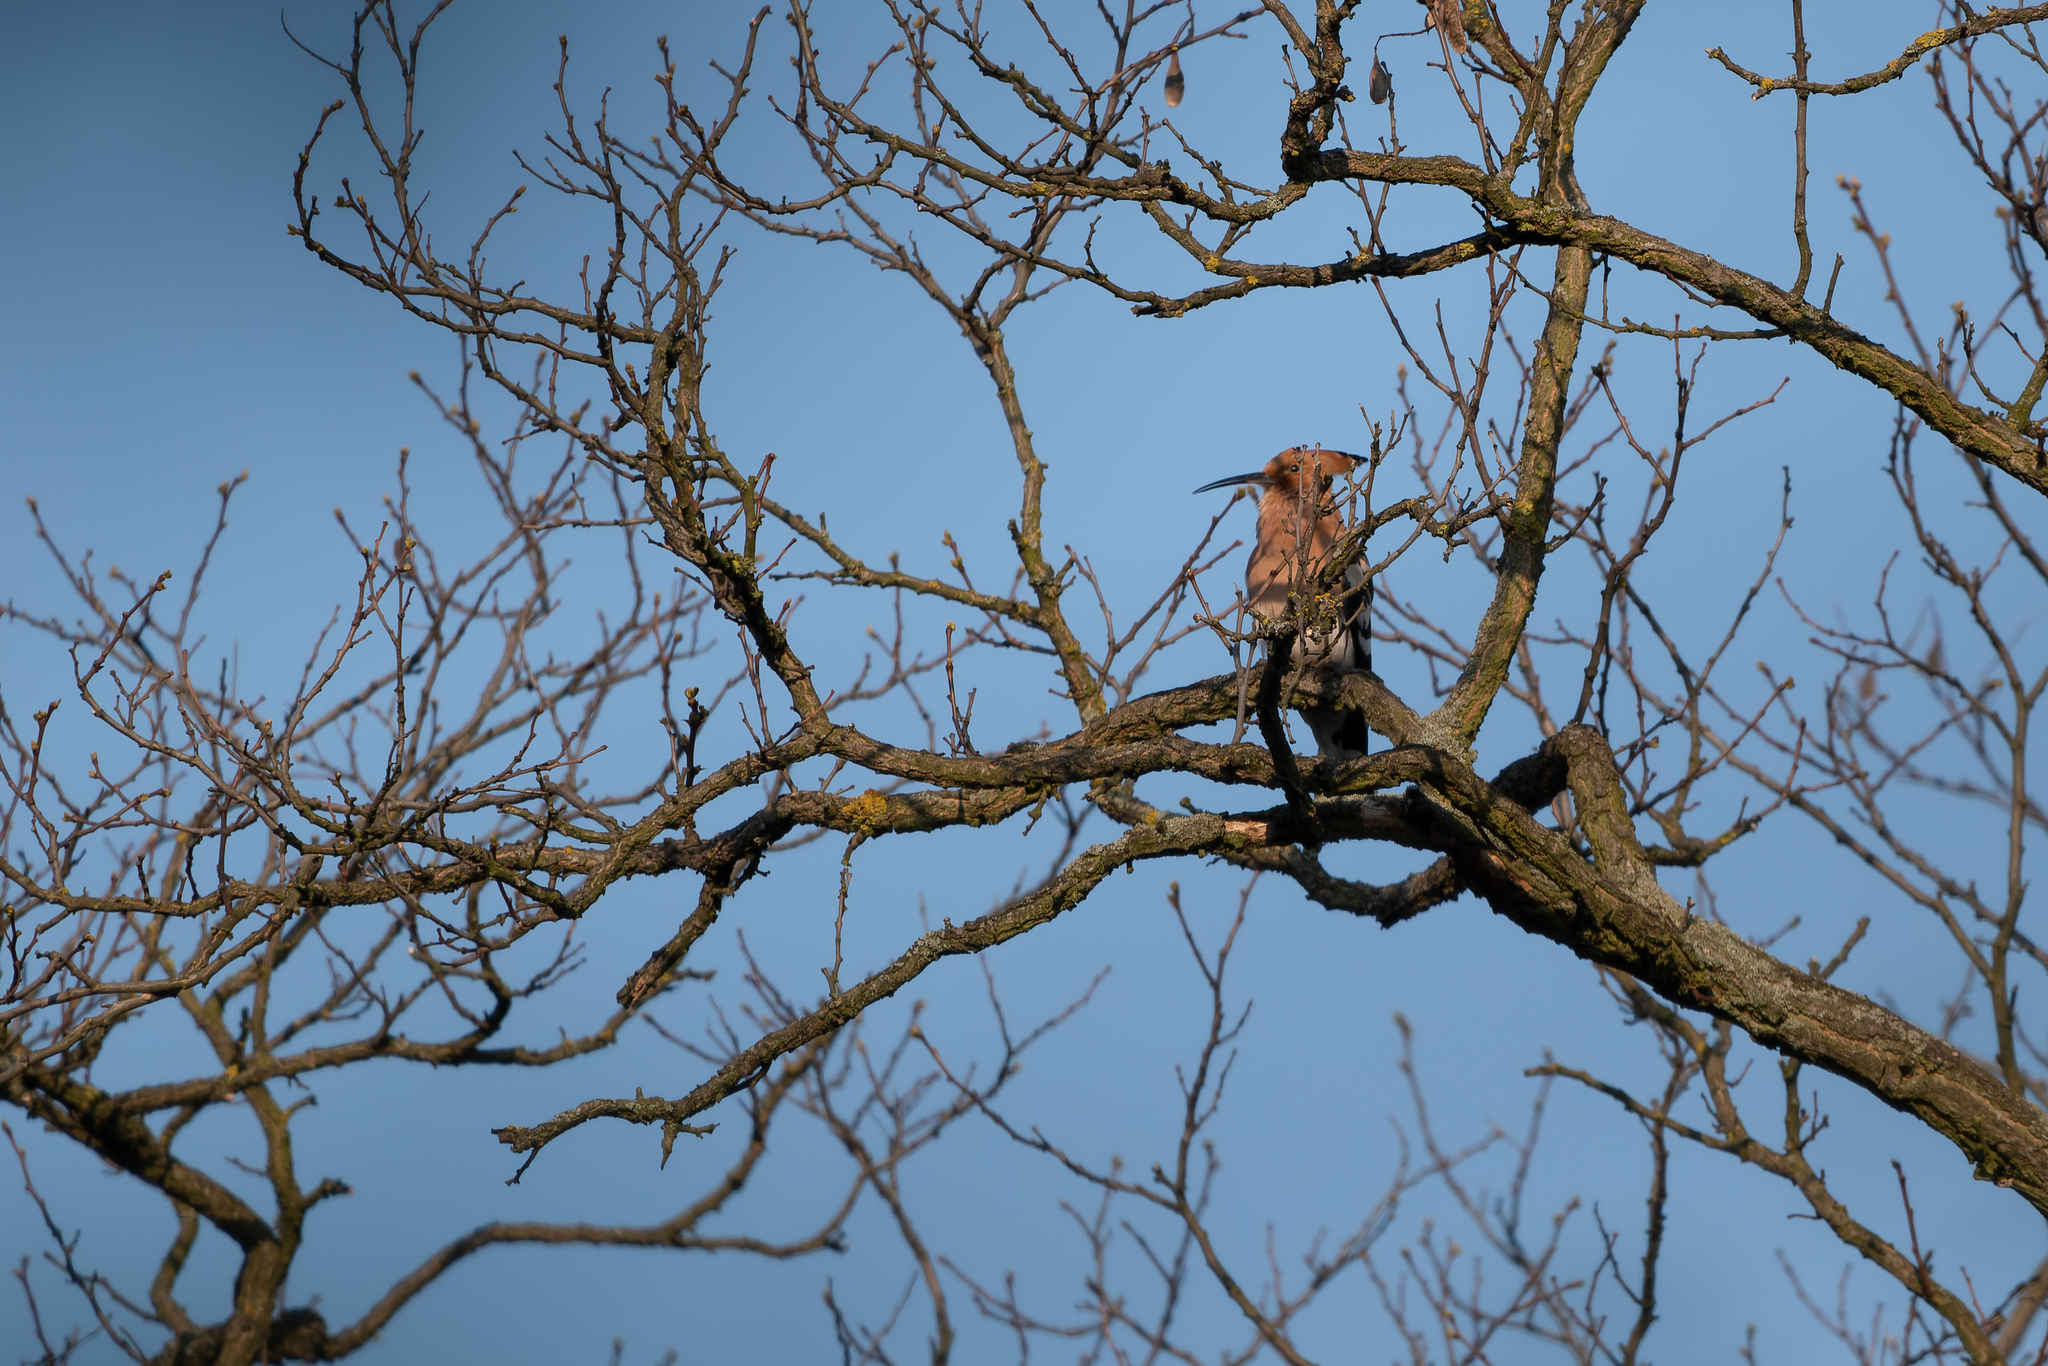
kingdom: Animalia
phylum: Chordata
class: Aves
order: Bucerotiformes
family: Upupidae
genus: Upupa
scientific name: Upupa epops
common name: Eurasian hoopoe
